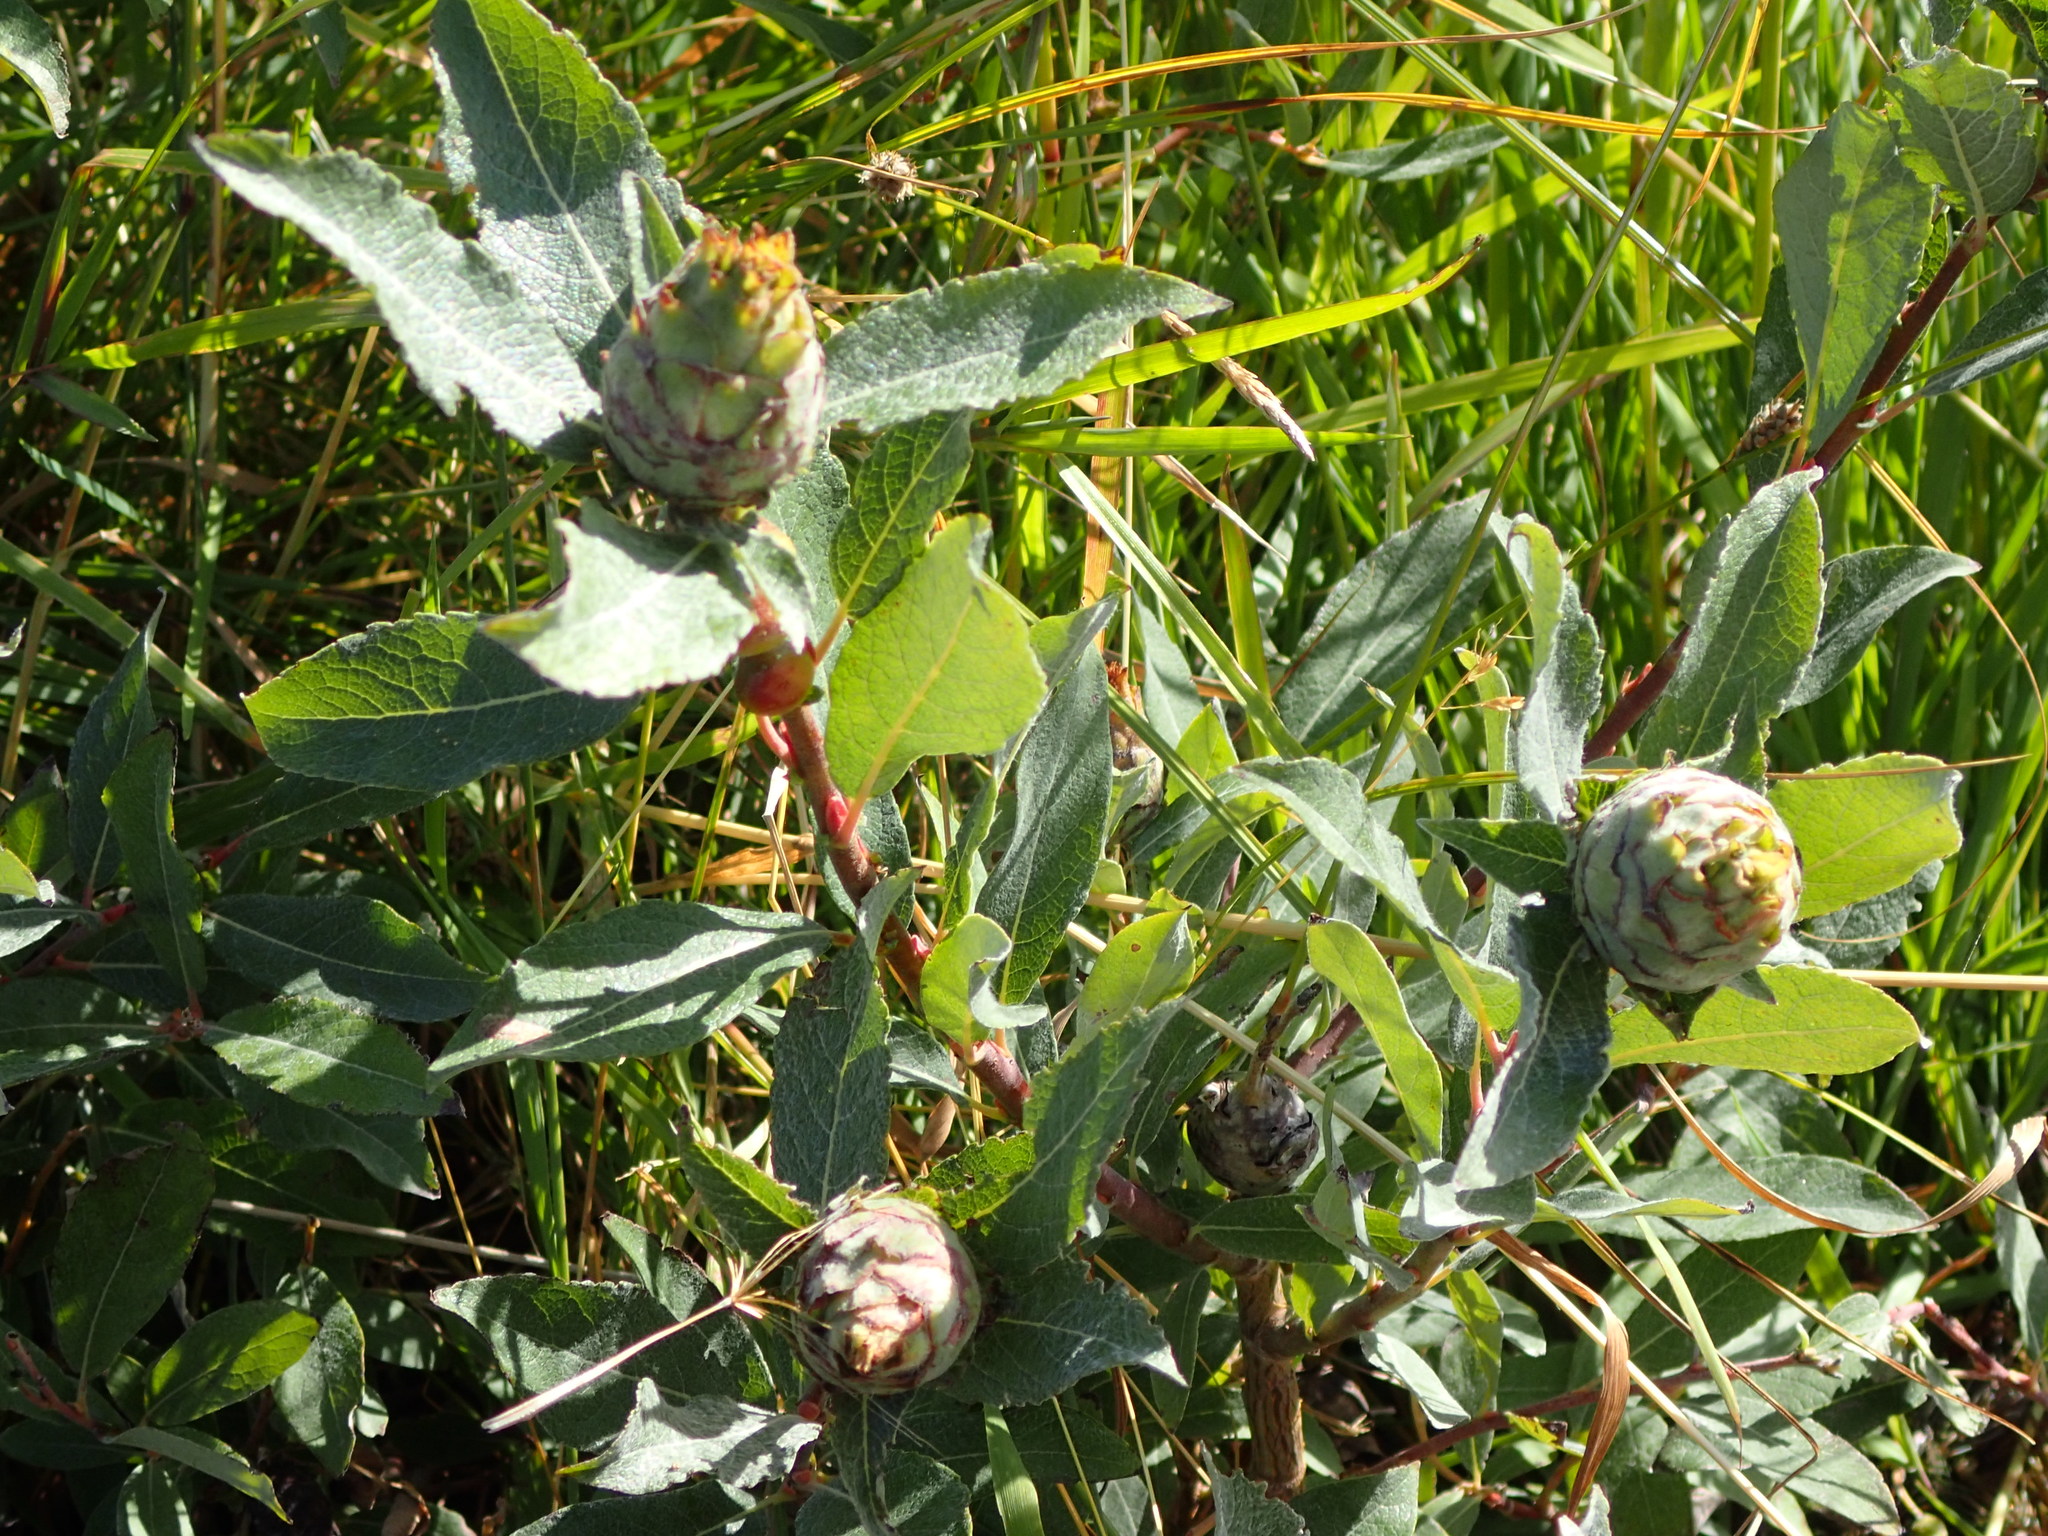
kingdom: Animalia
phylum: Arthropoda
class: Insecta
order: Diptera
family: Cecidomyiidae
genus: Rabdophaga
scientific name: Rabdophaga strobiloides
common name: Willow pinecone gall midge
